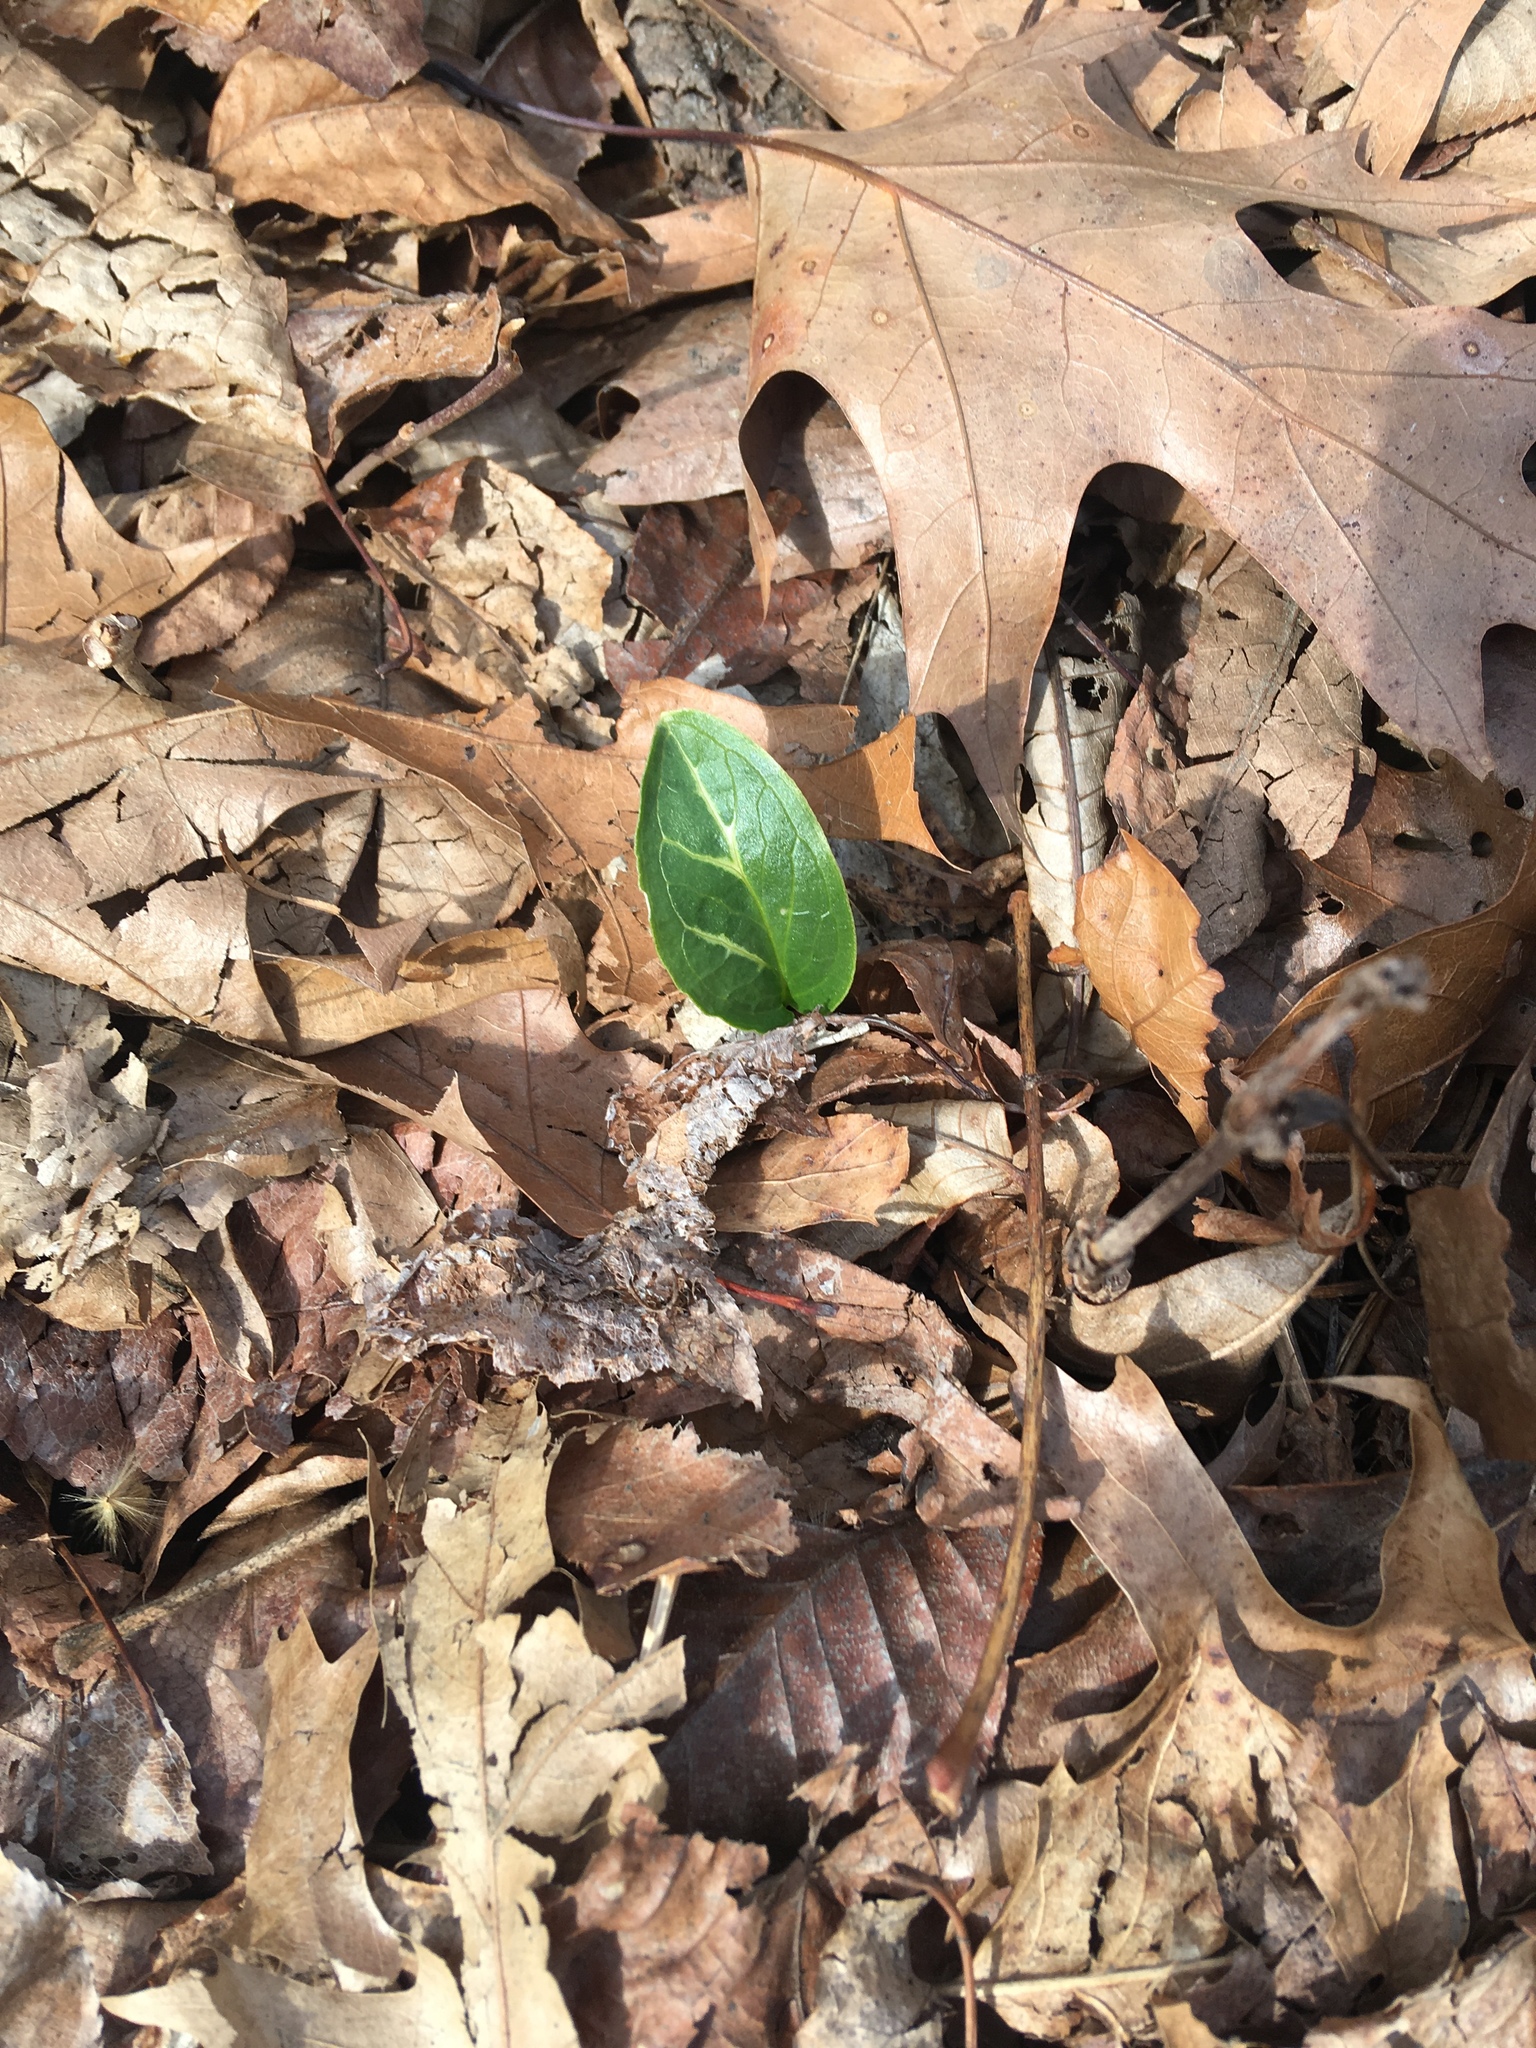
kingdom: Plantae
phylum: Tracheophyta
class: Liliopsida
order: Alismatales
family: Araceae
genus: Arum
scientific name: Arum italicum
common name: Italian lords-and-ladies
